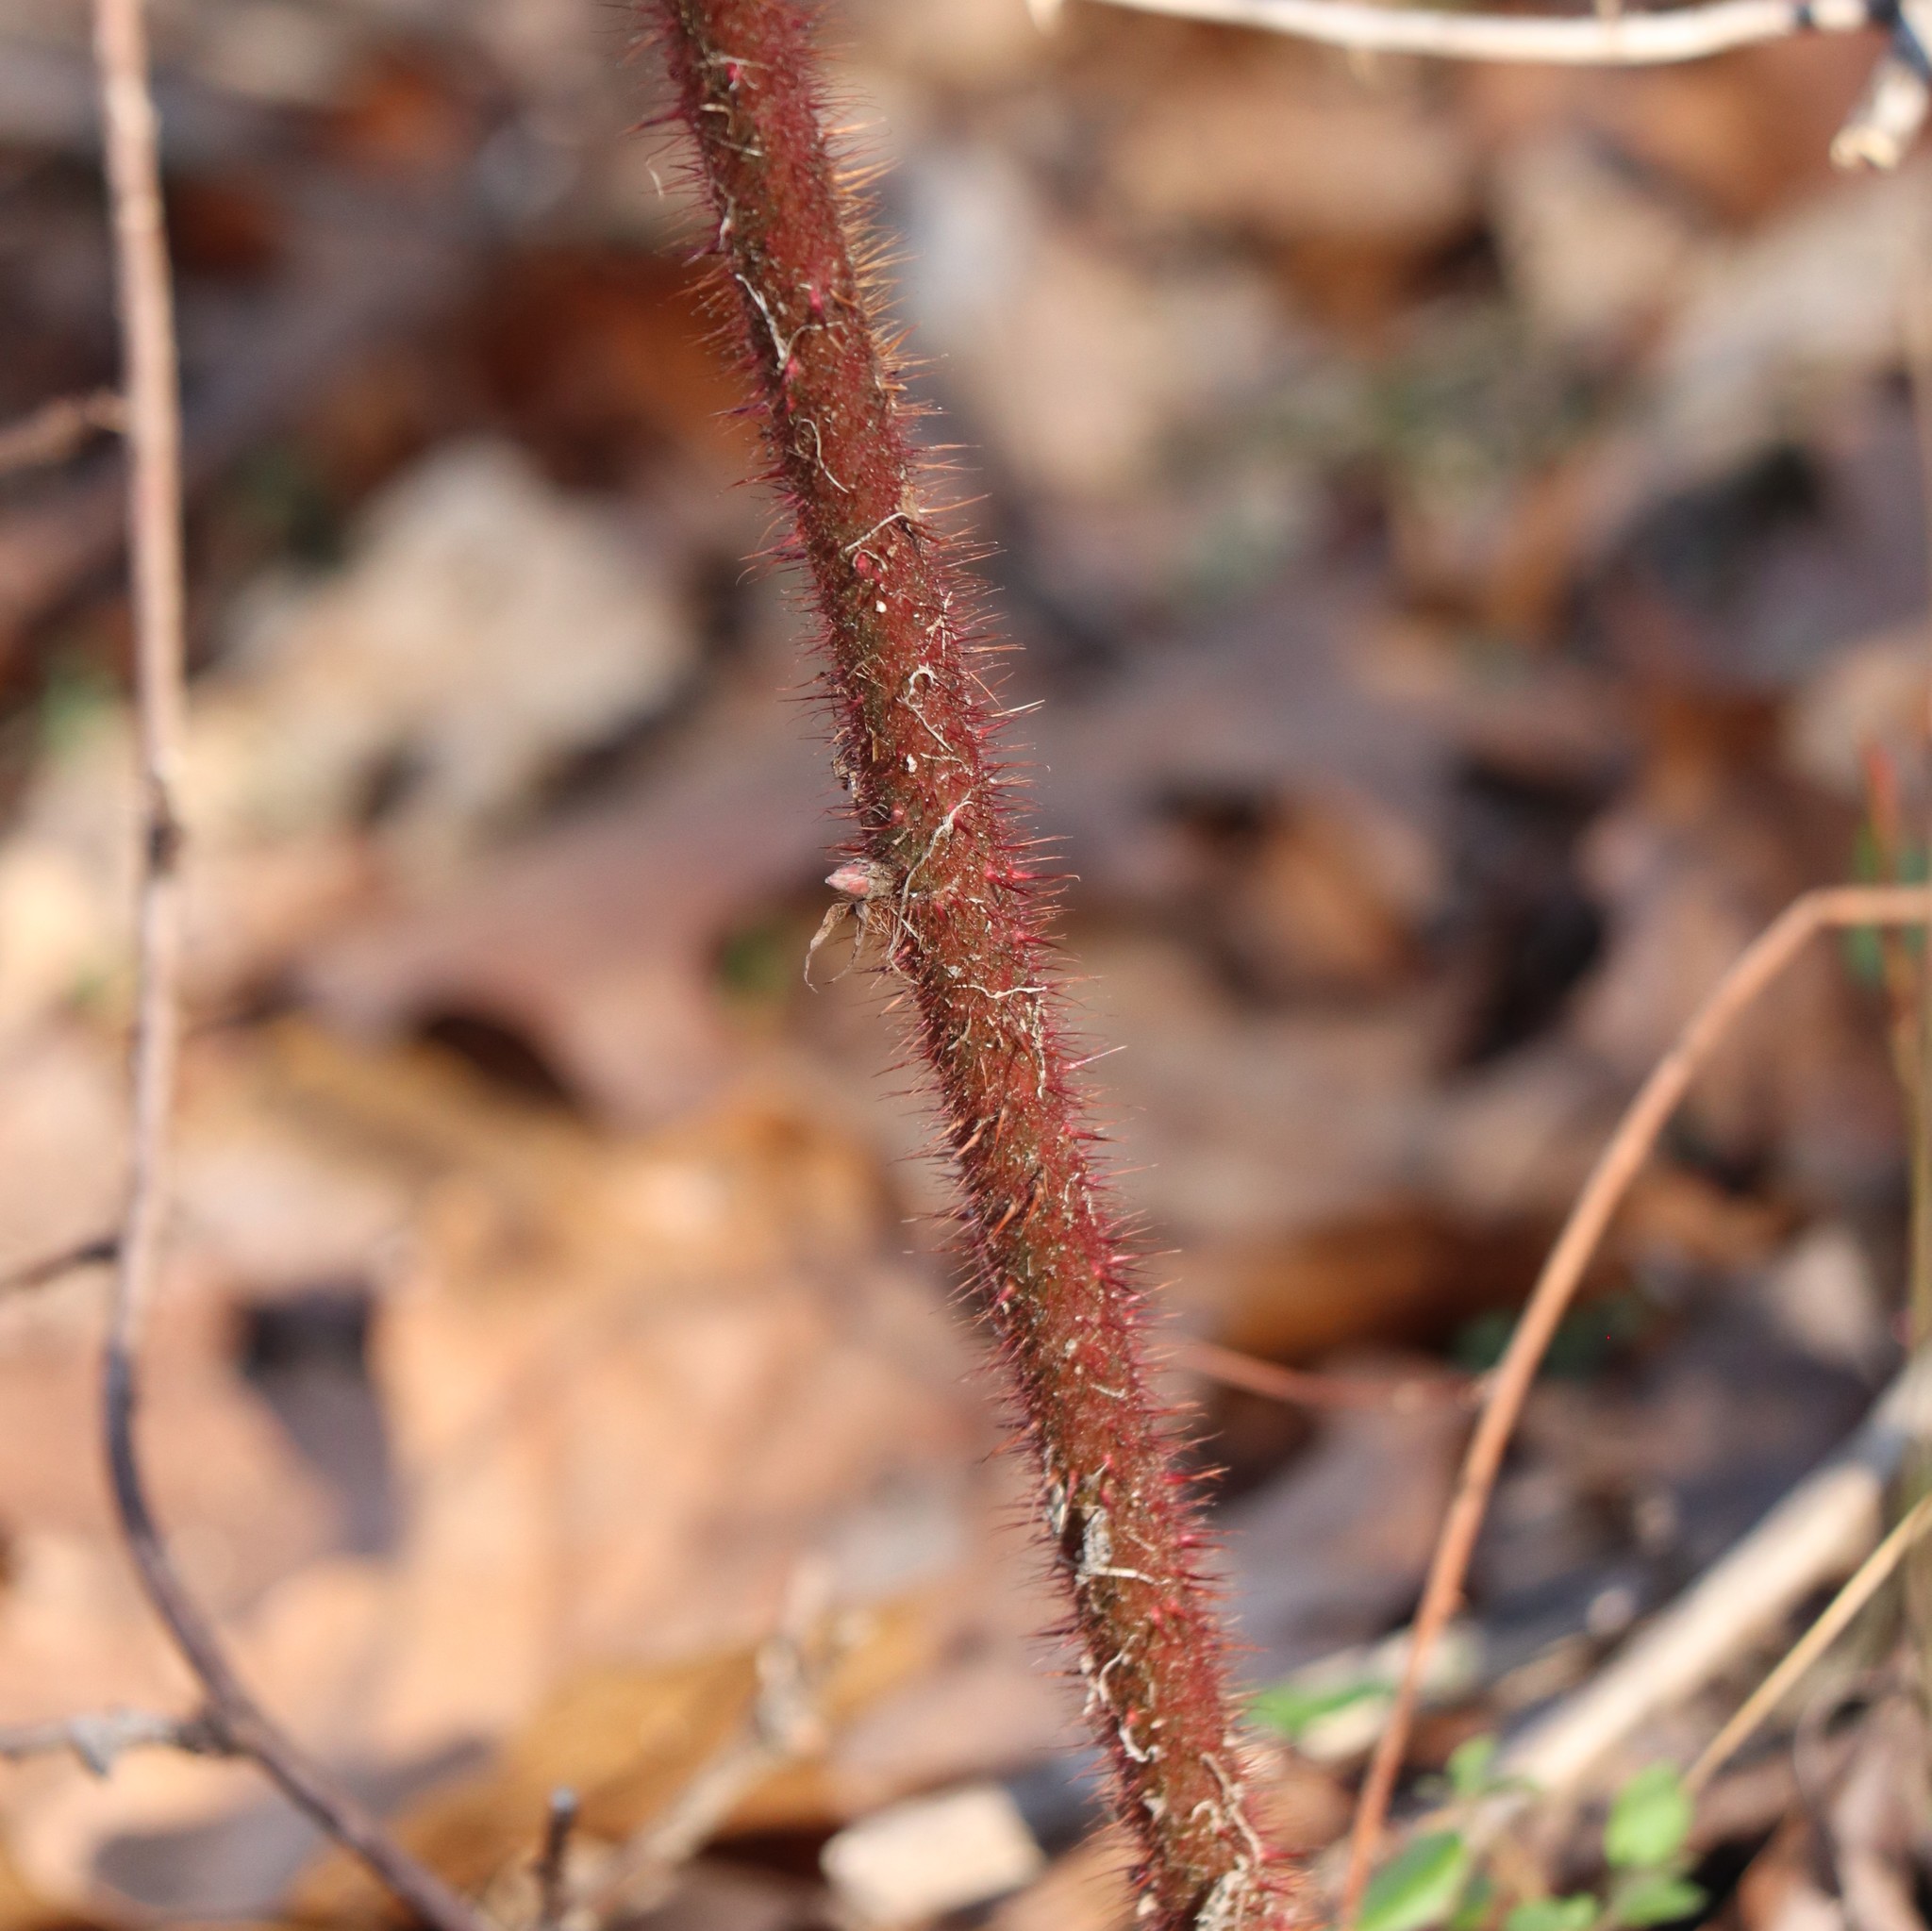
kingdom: Plantae
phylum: Tracheophyta
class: Magnoliopsida
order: Rosales
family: Rosaceae
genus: Rubus
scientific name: Rubus phoenicolasius
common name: Japanese wineberry
